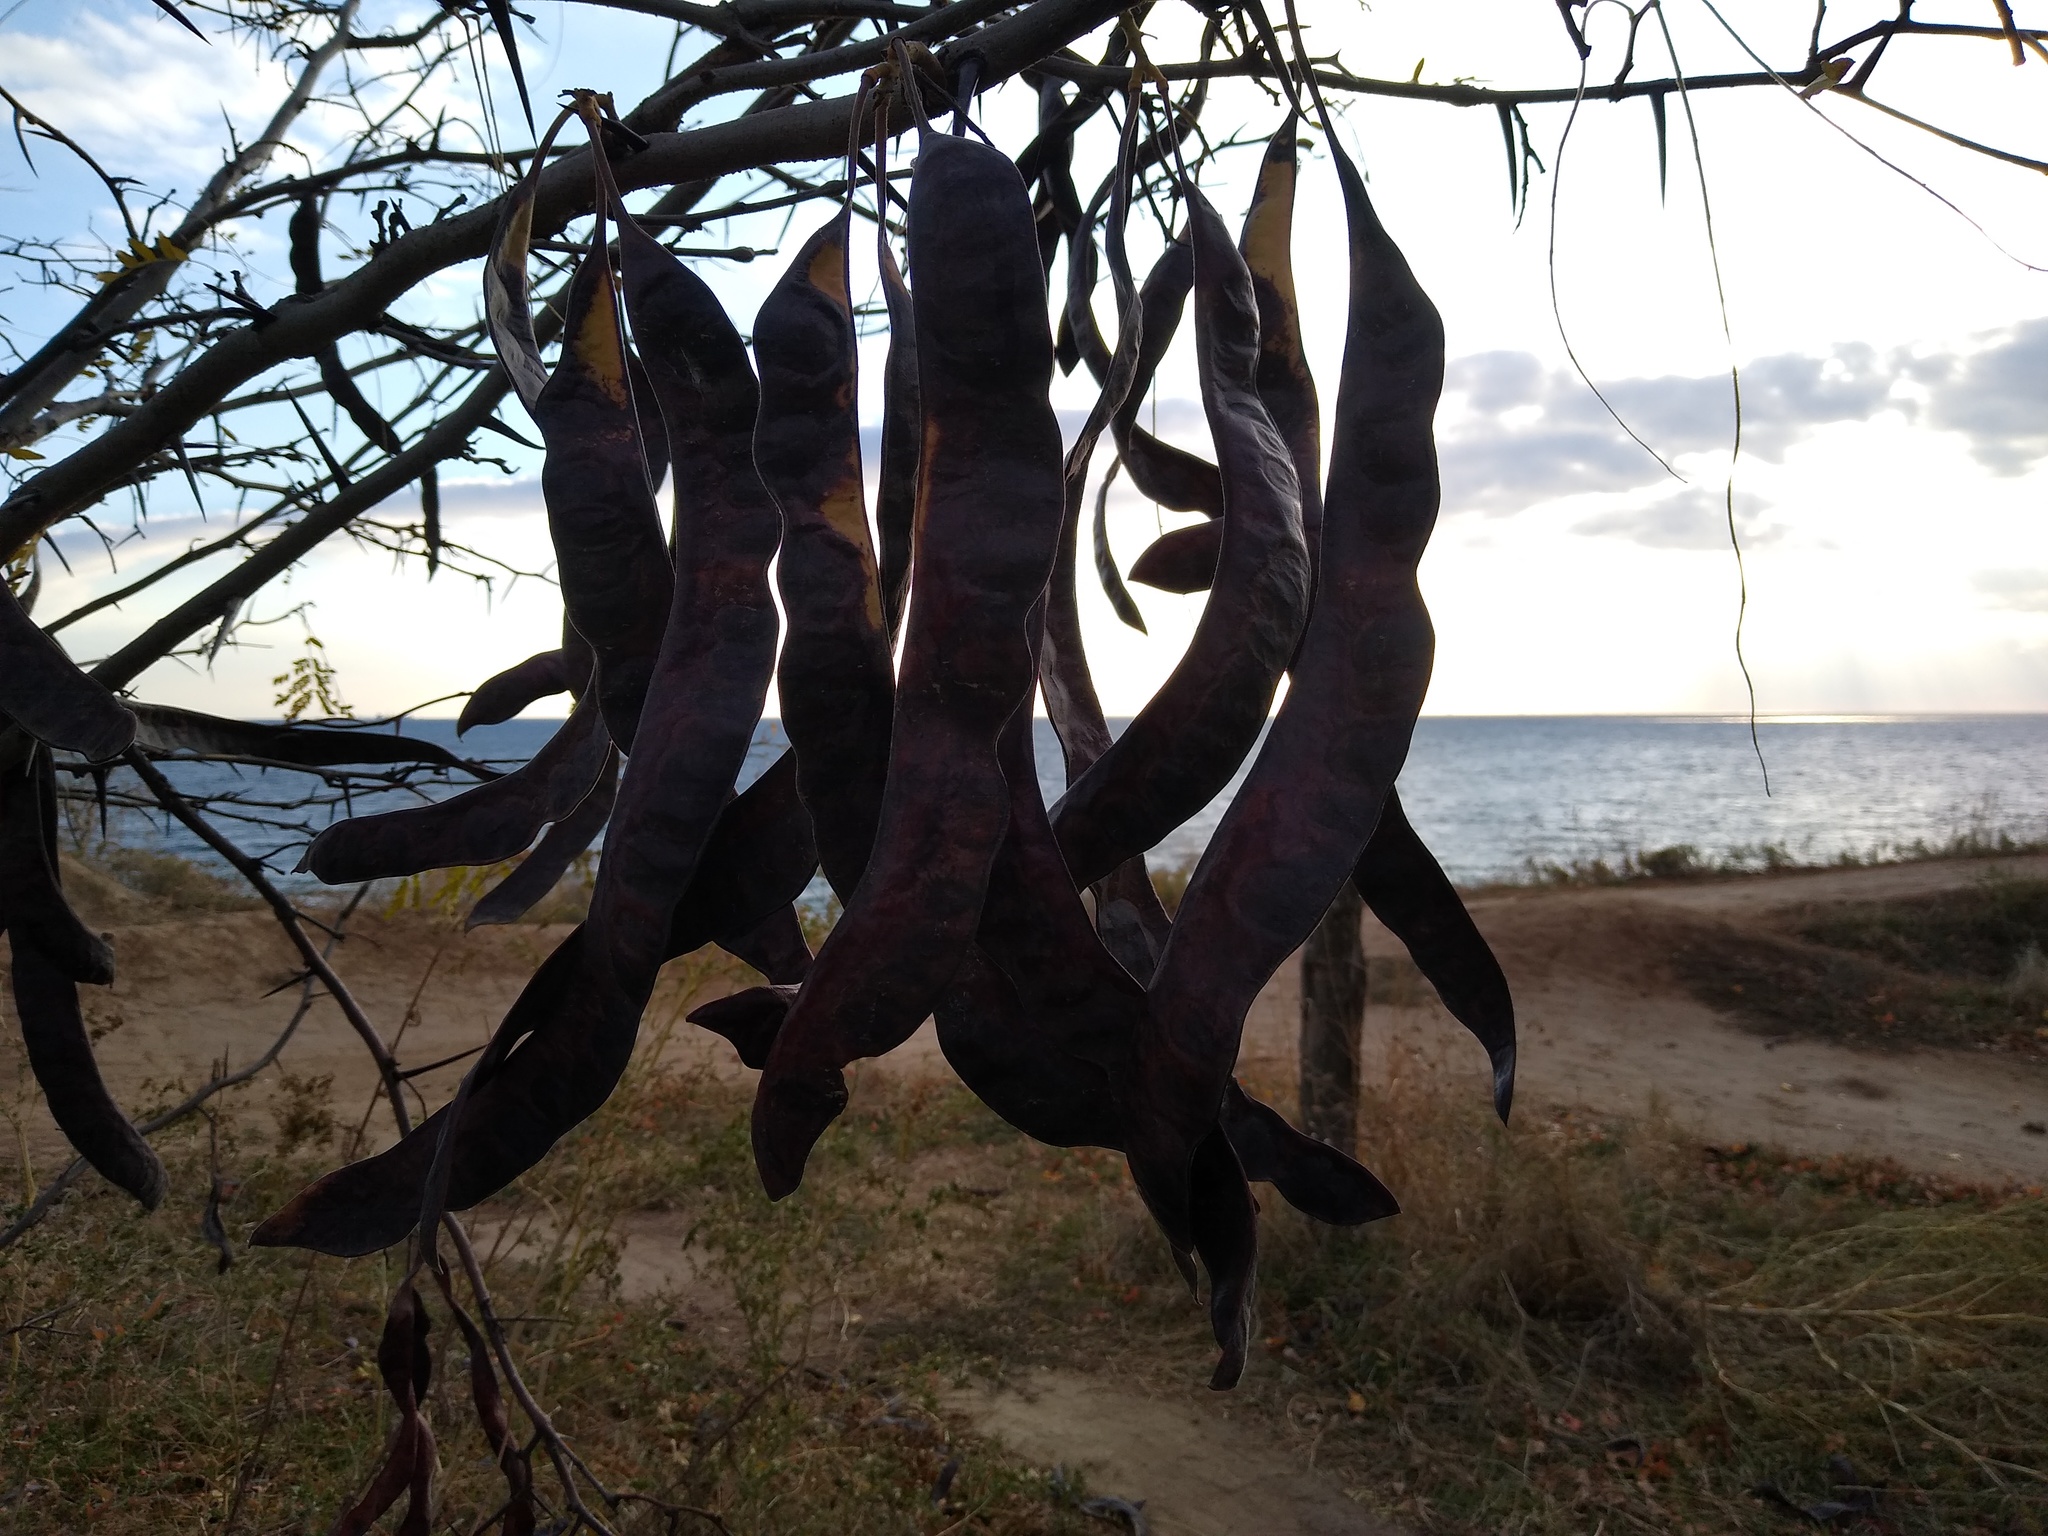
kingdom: Plantae
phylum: Tracheophyta
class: Magnoliopsida
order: Fabales
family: Fabaceae
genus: Gleditsia
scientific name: Gleditsia triacanthos
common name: Common honeylocust
